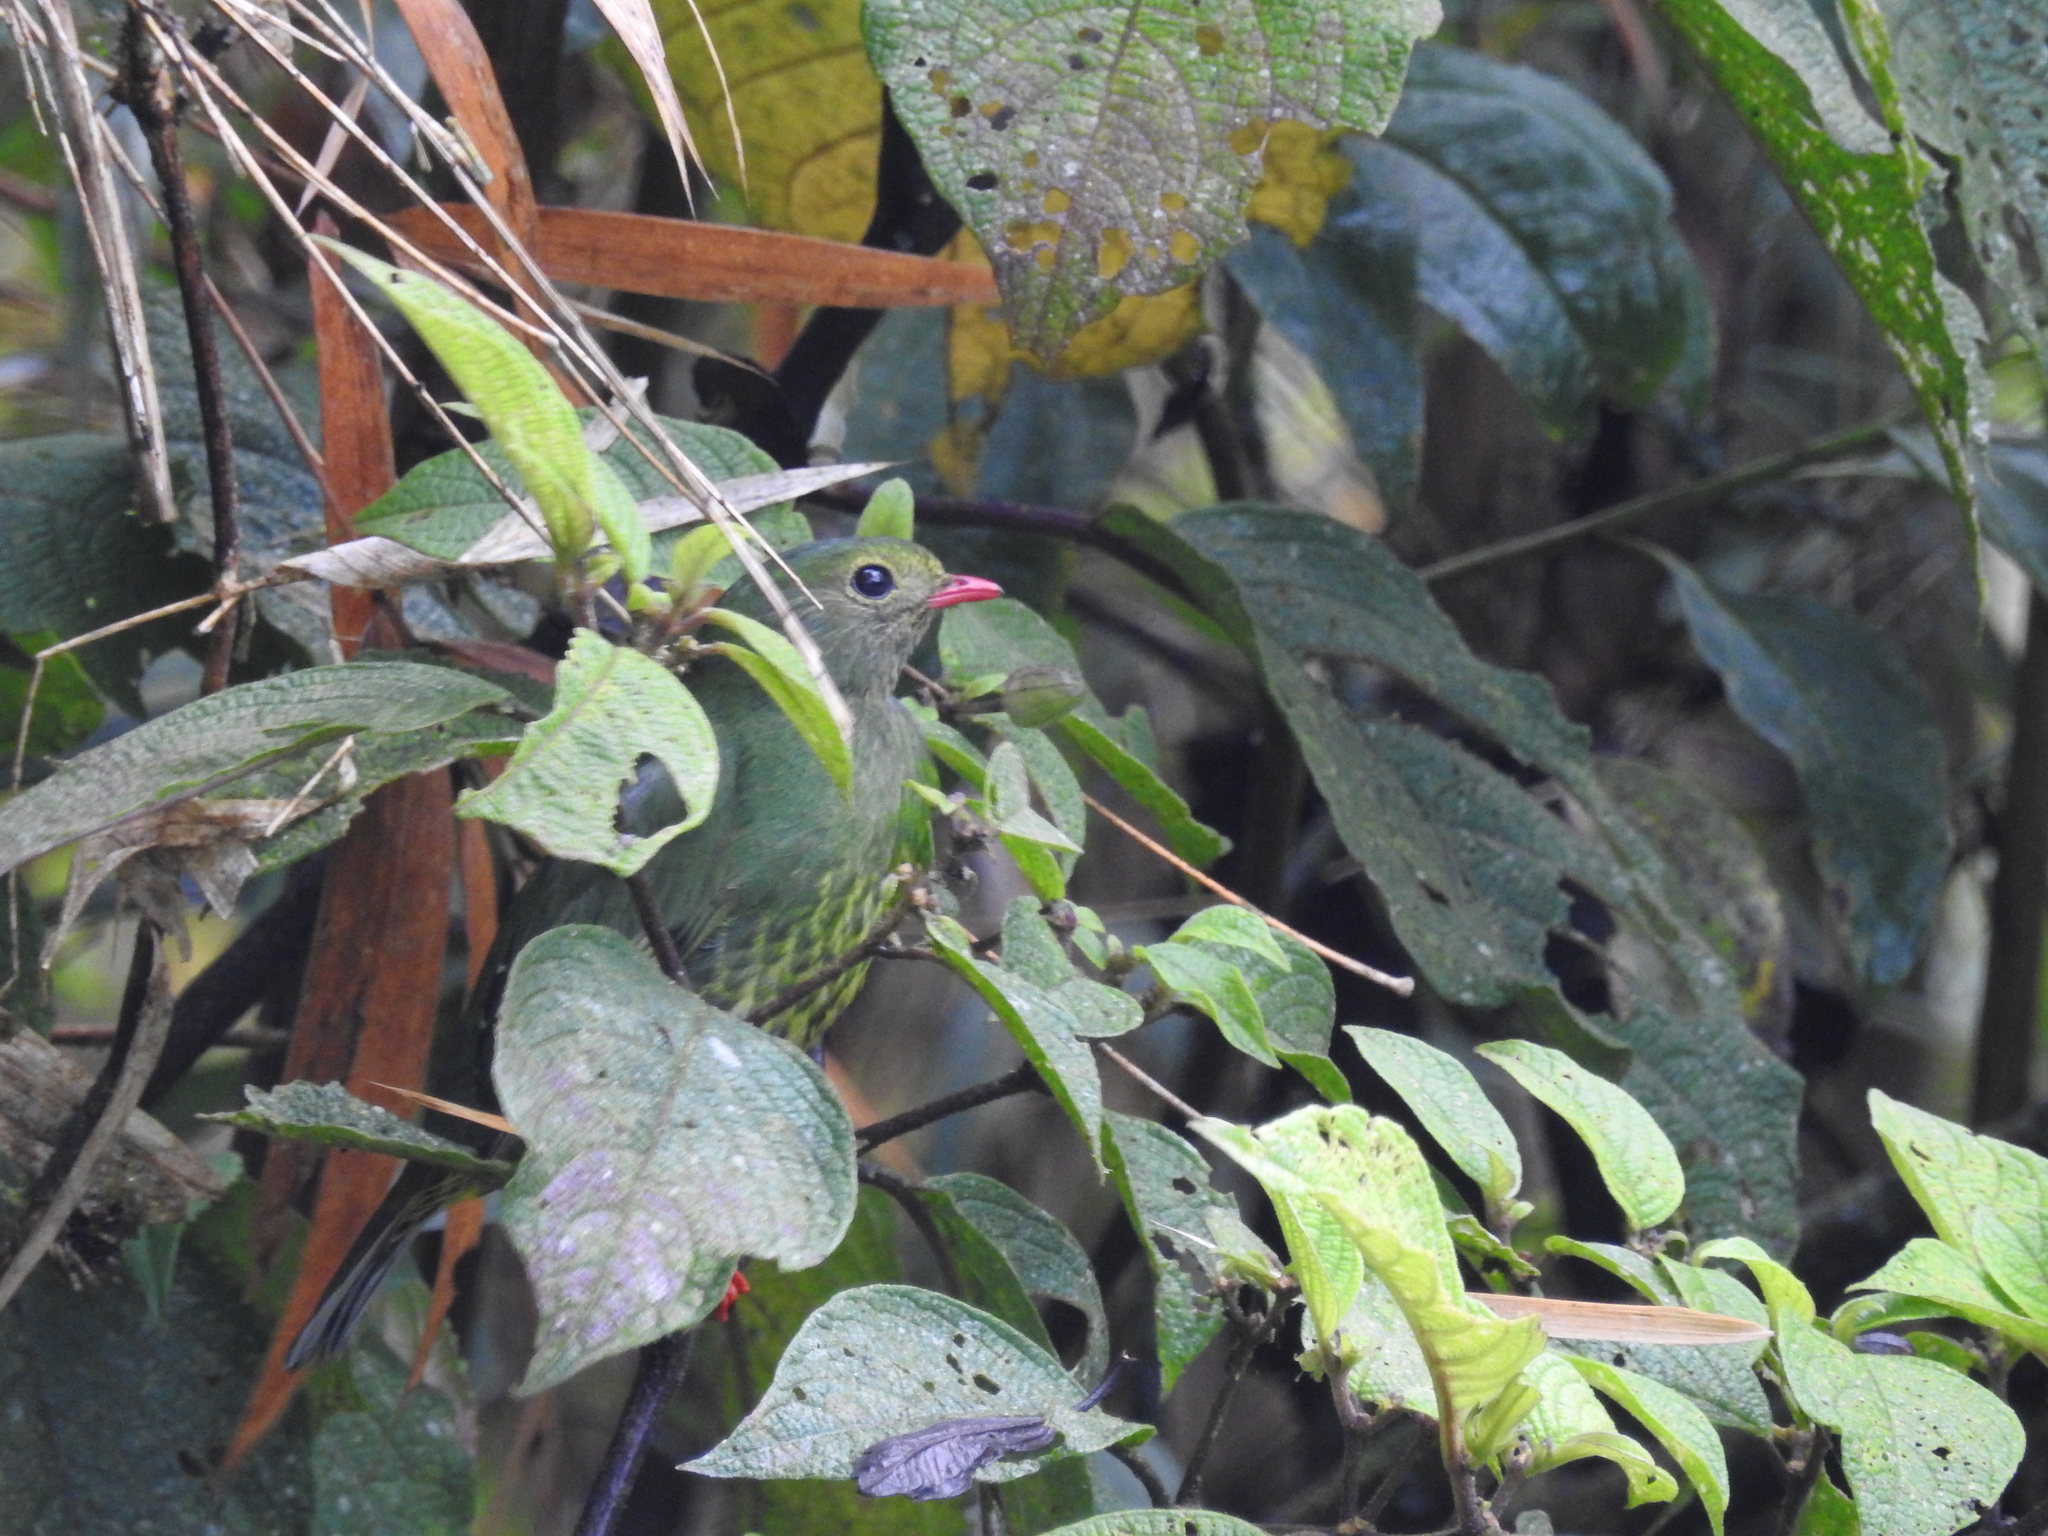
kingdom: Animalia
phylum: Chordata
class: Aves
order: Passeriformes
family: Cotingidae
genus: Pipreola
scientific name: Pipreola riefferii
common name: Green-and-black fruiteater
